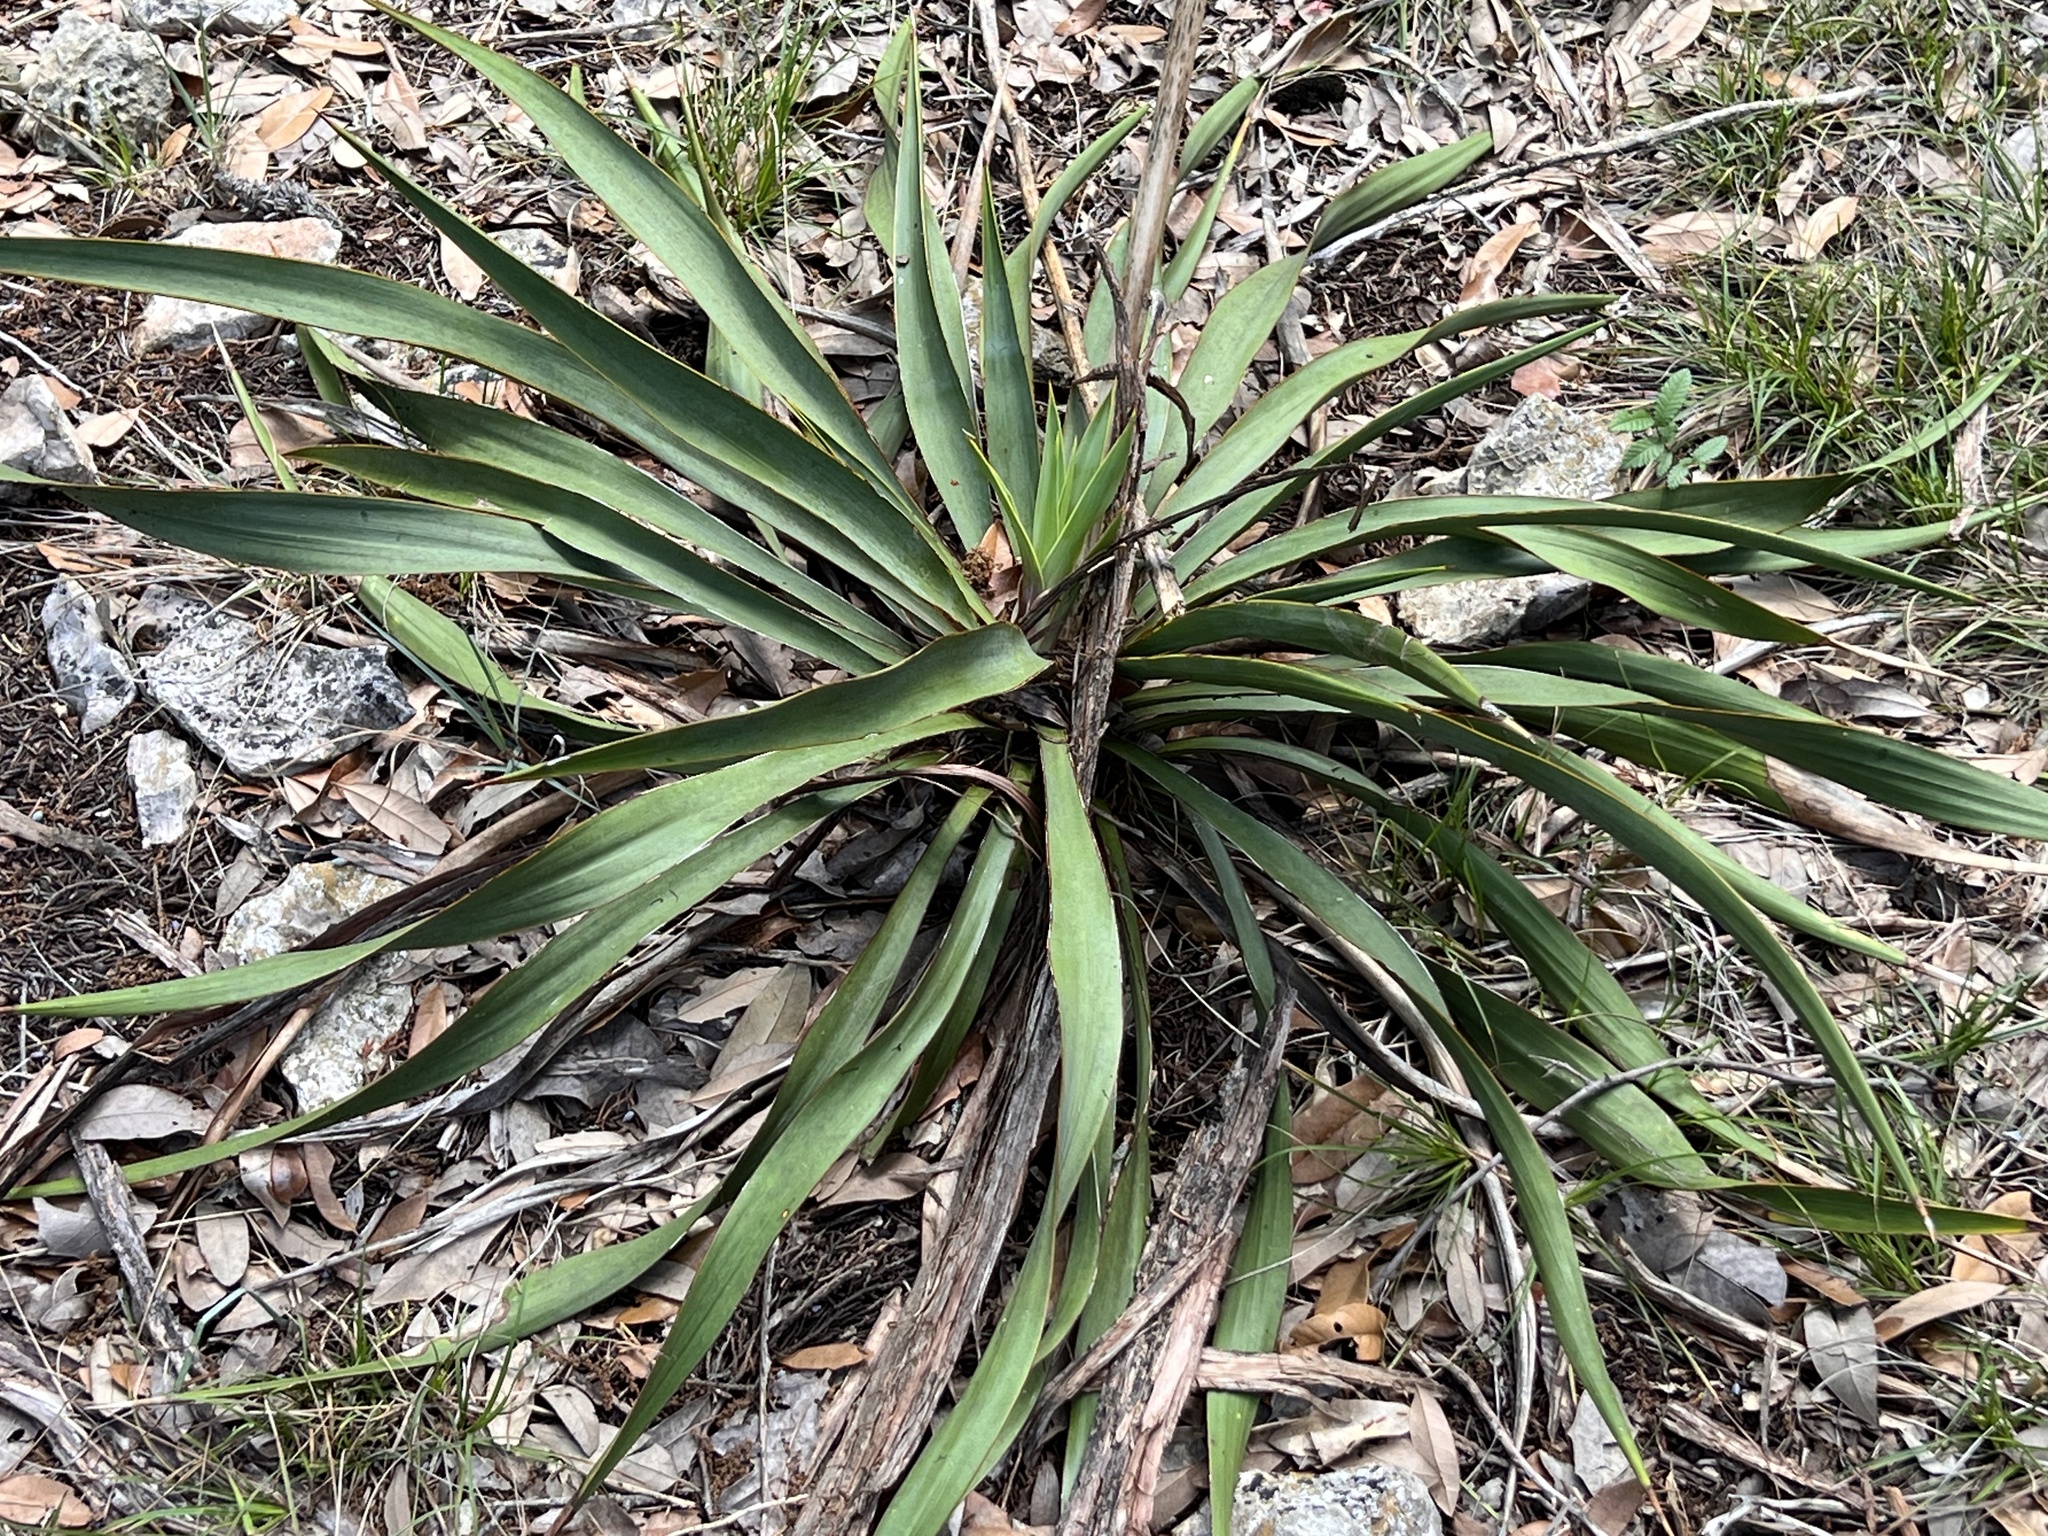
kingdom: Plantae
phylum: Tracheophyta
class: Liliopsida
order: Asparagales
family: Asparagaceae
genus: Yucca
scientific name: Yucca rupicola
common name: Twisted-leaf spanish-dagger
